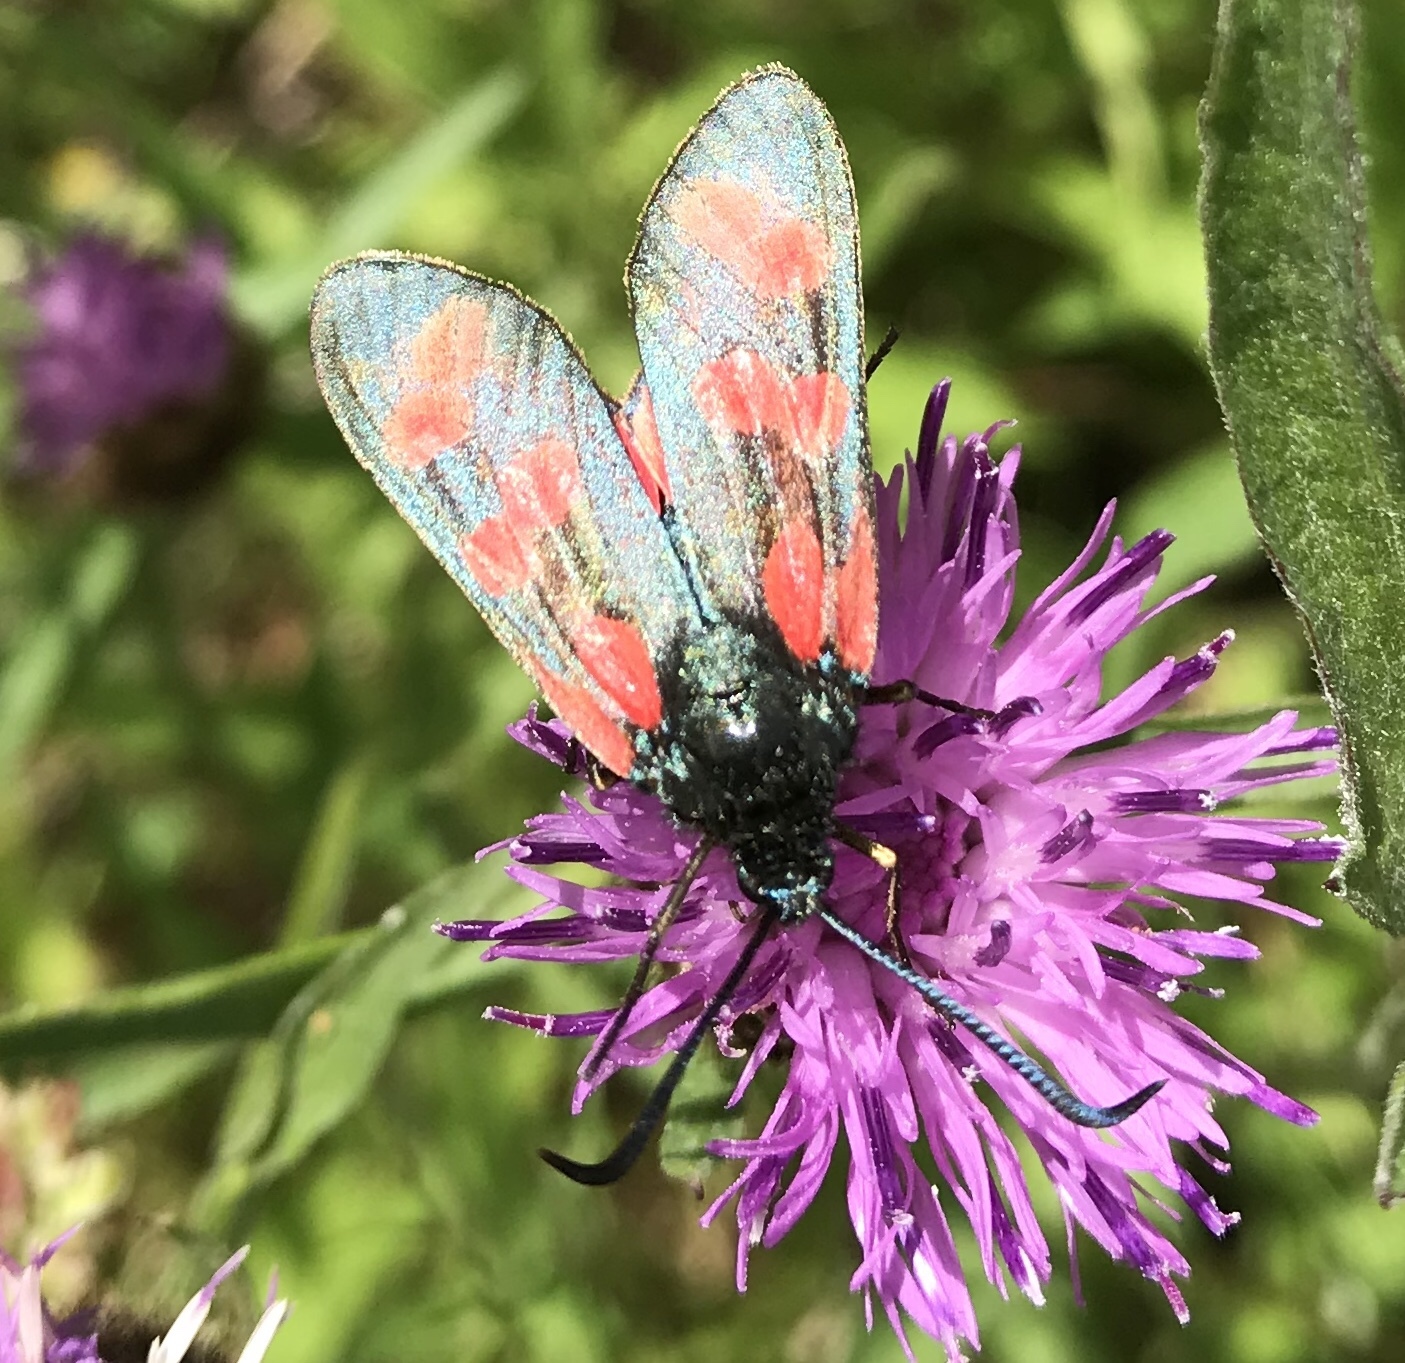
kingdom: Animalia
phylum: Arthropoda
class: Insecta
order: Lepidoptera
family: Zygaenidae
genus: Zygaena
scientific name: Zygaena filipendulae
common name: Six-spot burnet
